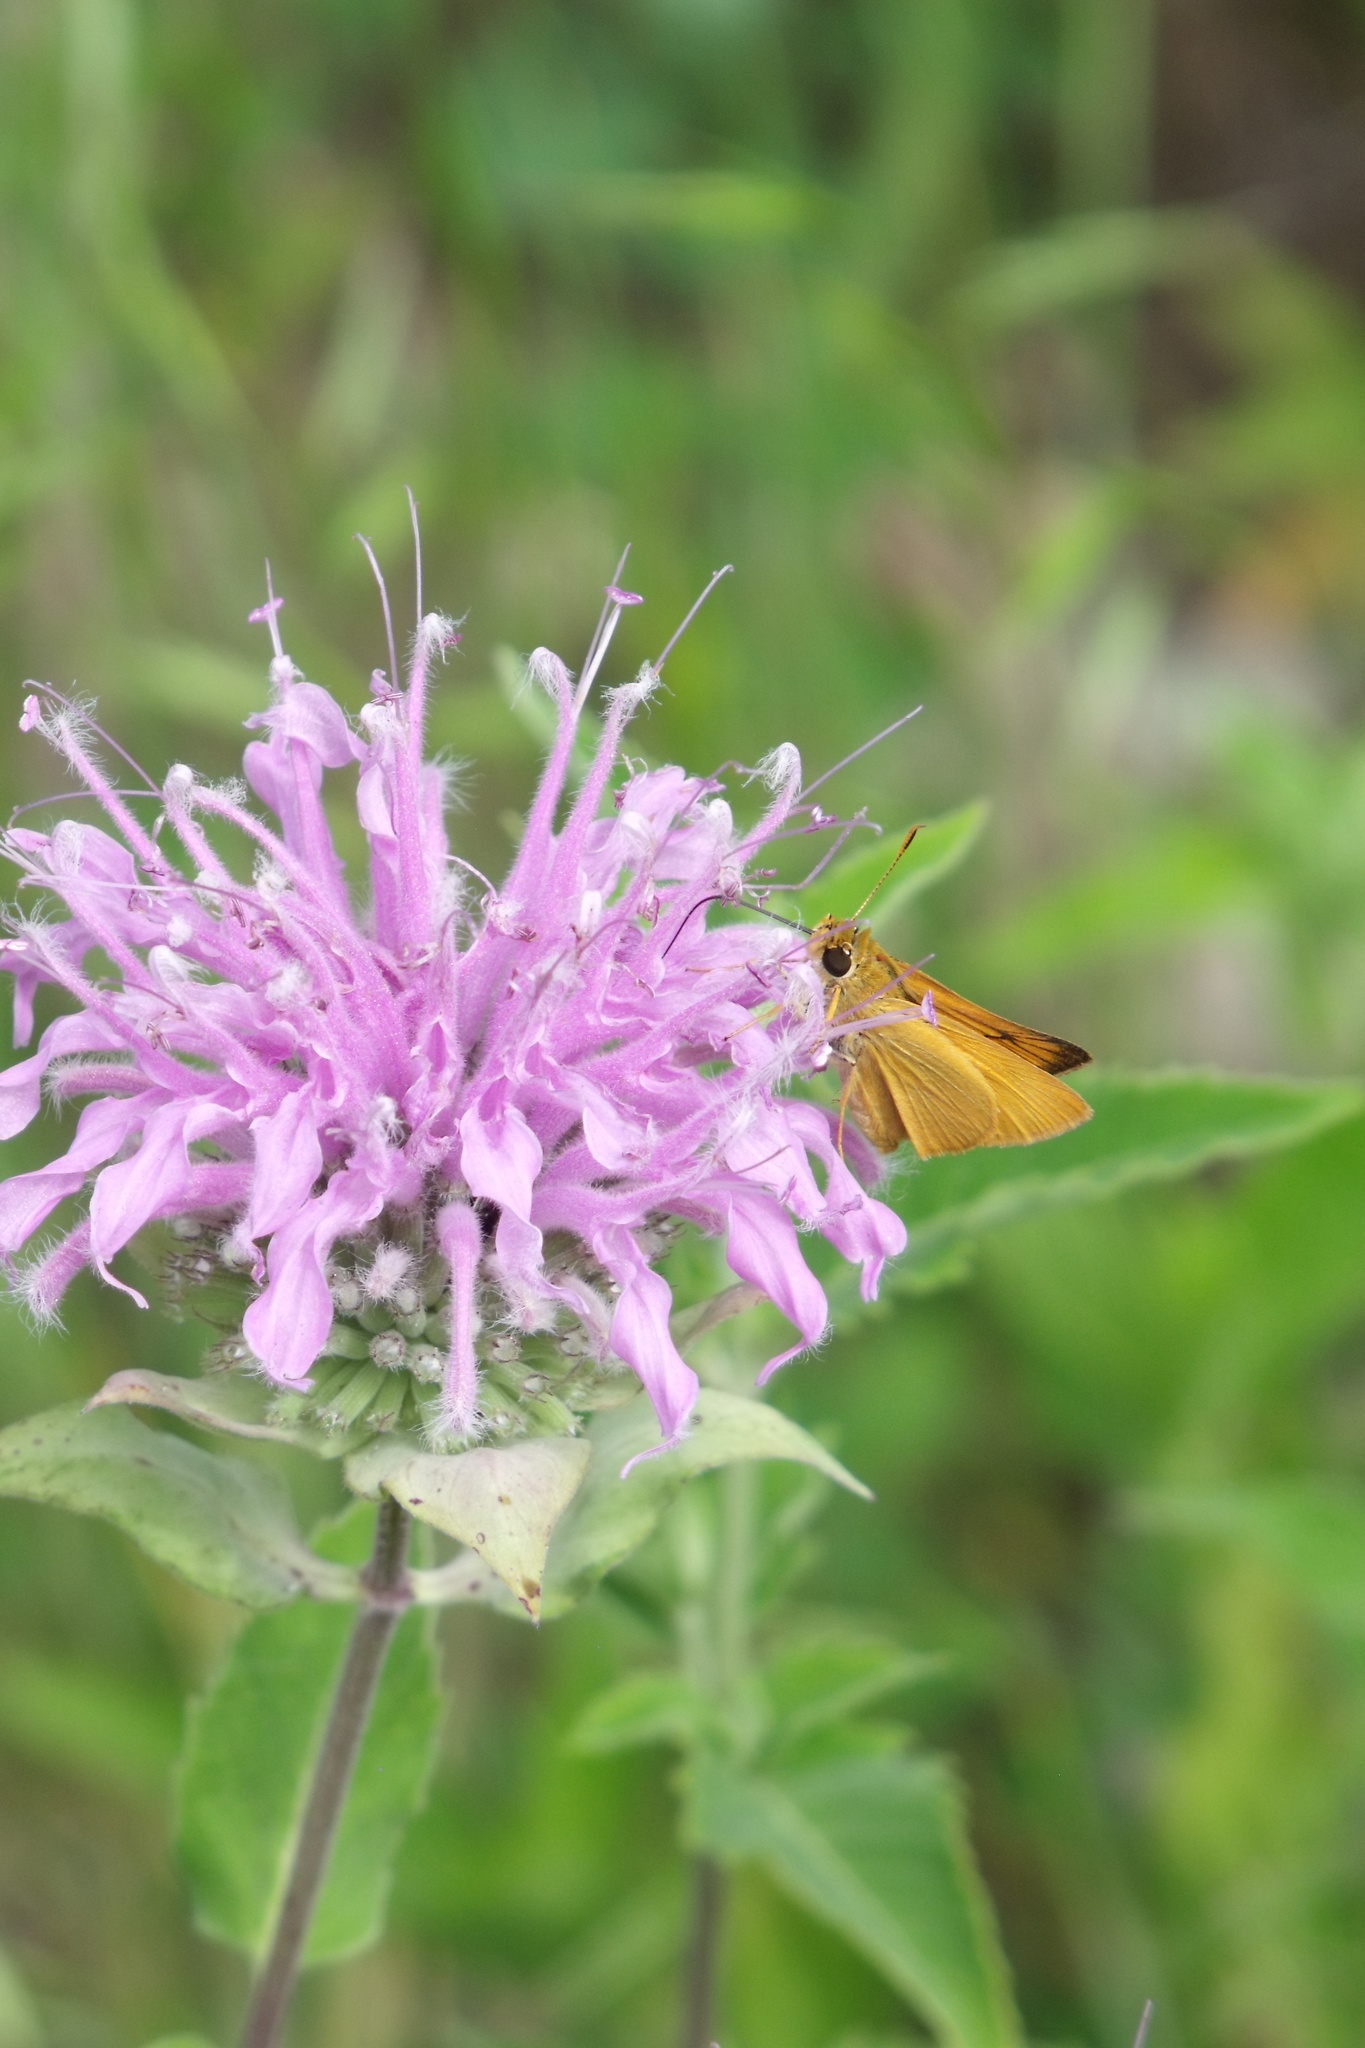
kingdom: Animalia
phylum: Arthropoda
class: Insecta
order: Lepidoptera
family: Hesperiidae
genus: Atrytone
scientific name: Atrytone delaware
